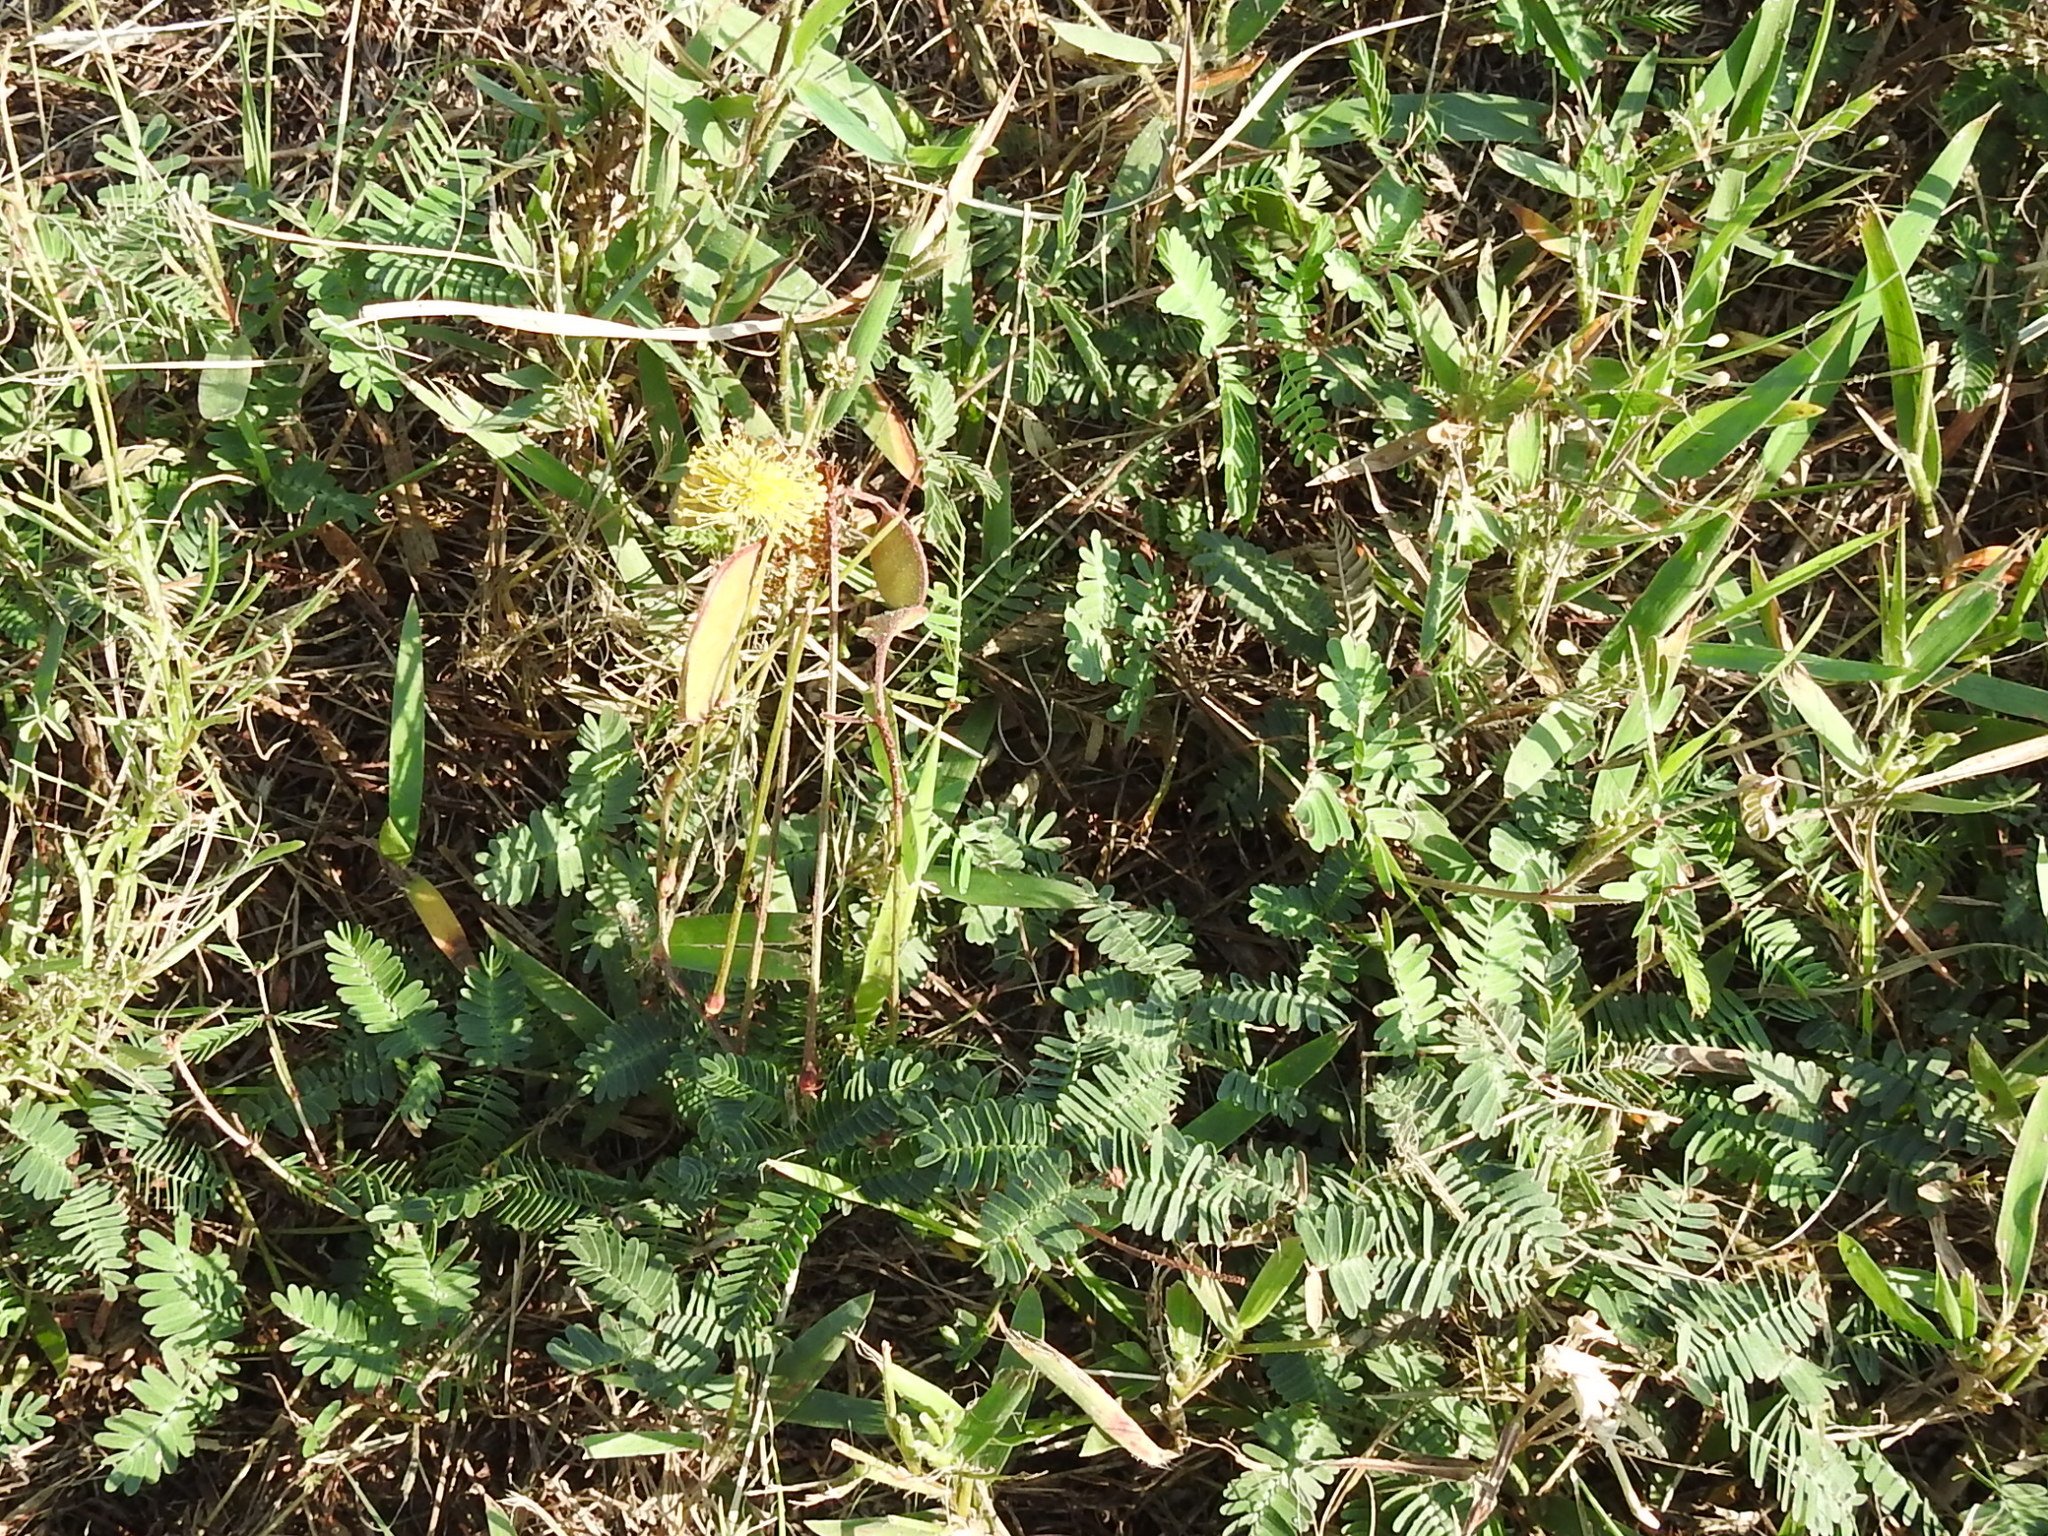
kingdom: Plantae
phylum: Tracheophyta
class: Magnoliopsida
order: Fabales
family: Fabaceae
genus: Neptunia
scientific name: Neptunia lutea
